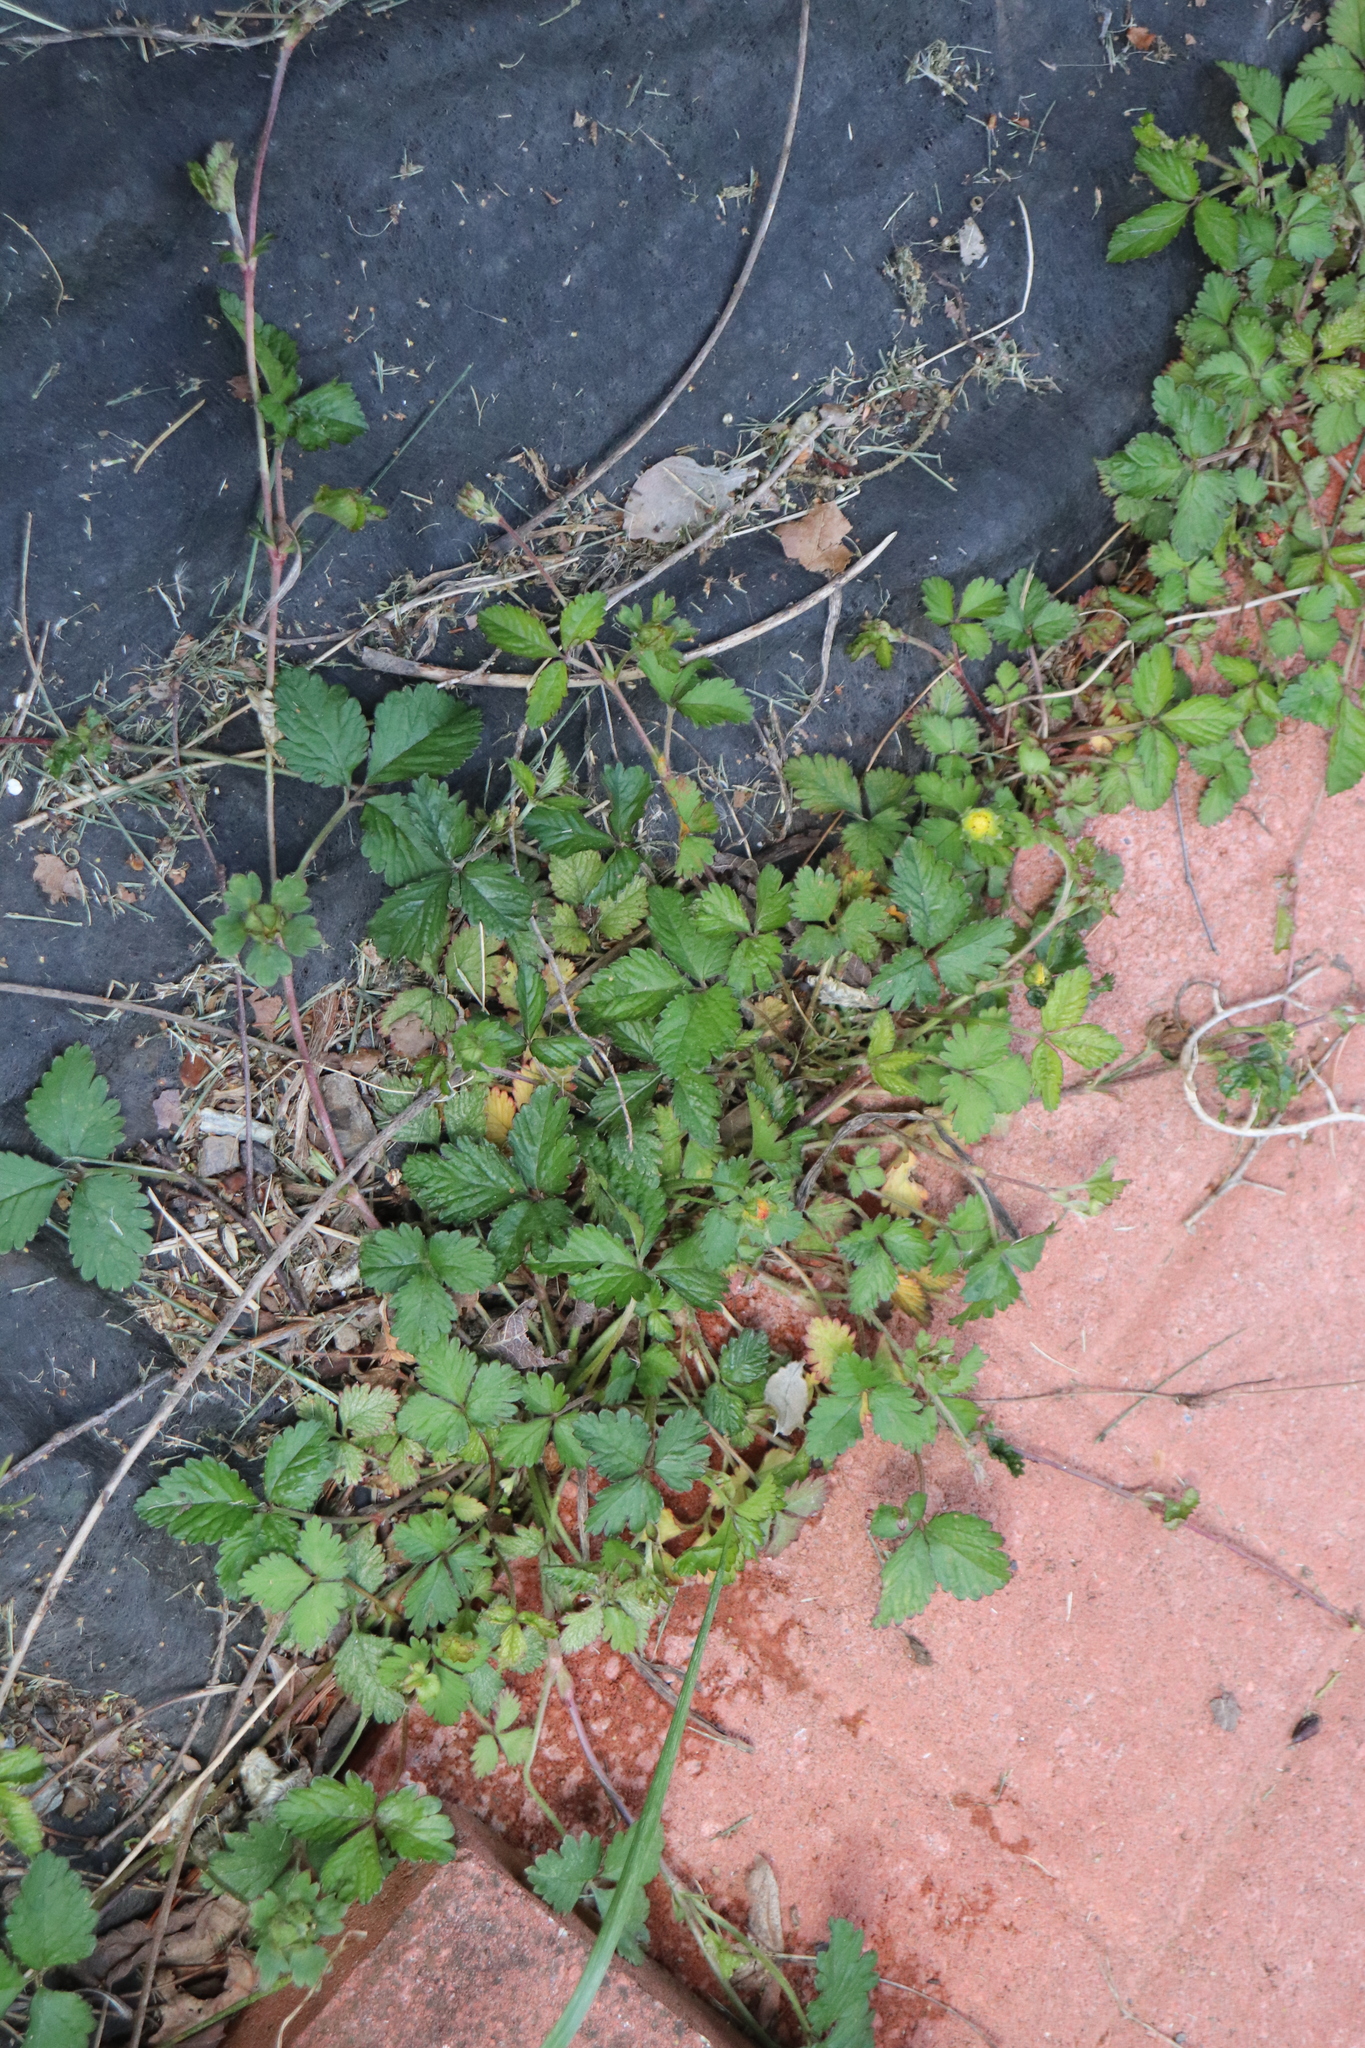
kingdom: Plantae
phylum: Tracheophyta
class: Magnoliopsida
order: Rosales
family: Rosaceae
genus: Potentilla
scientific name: Potentilla indica
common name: Yellow-flowered strawberry
